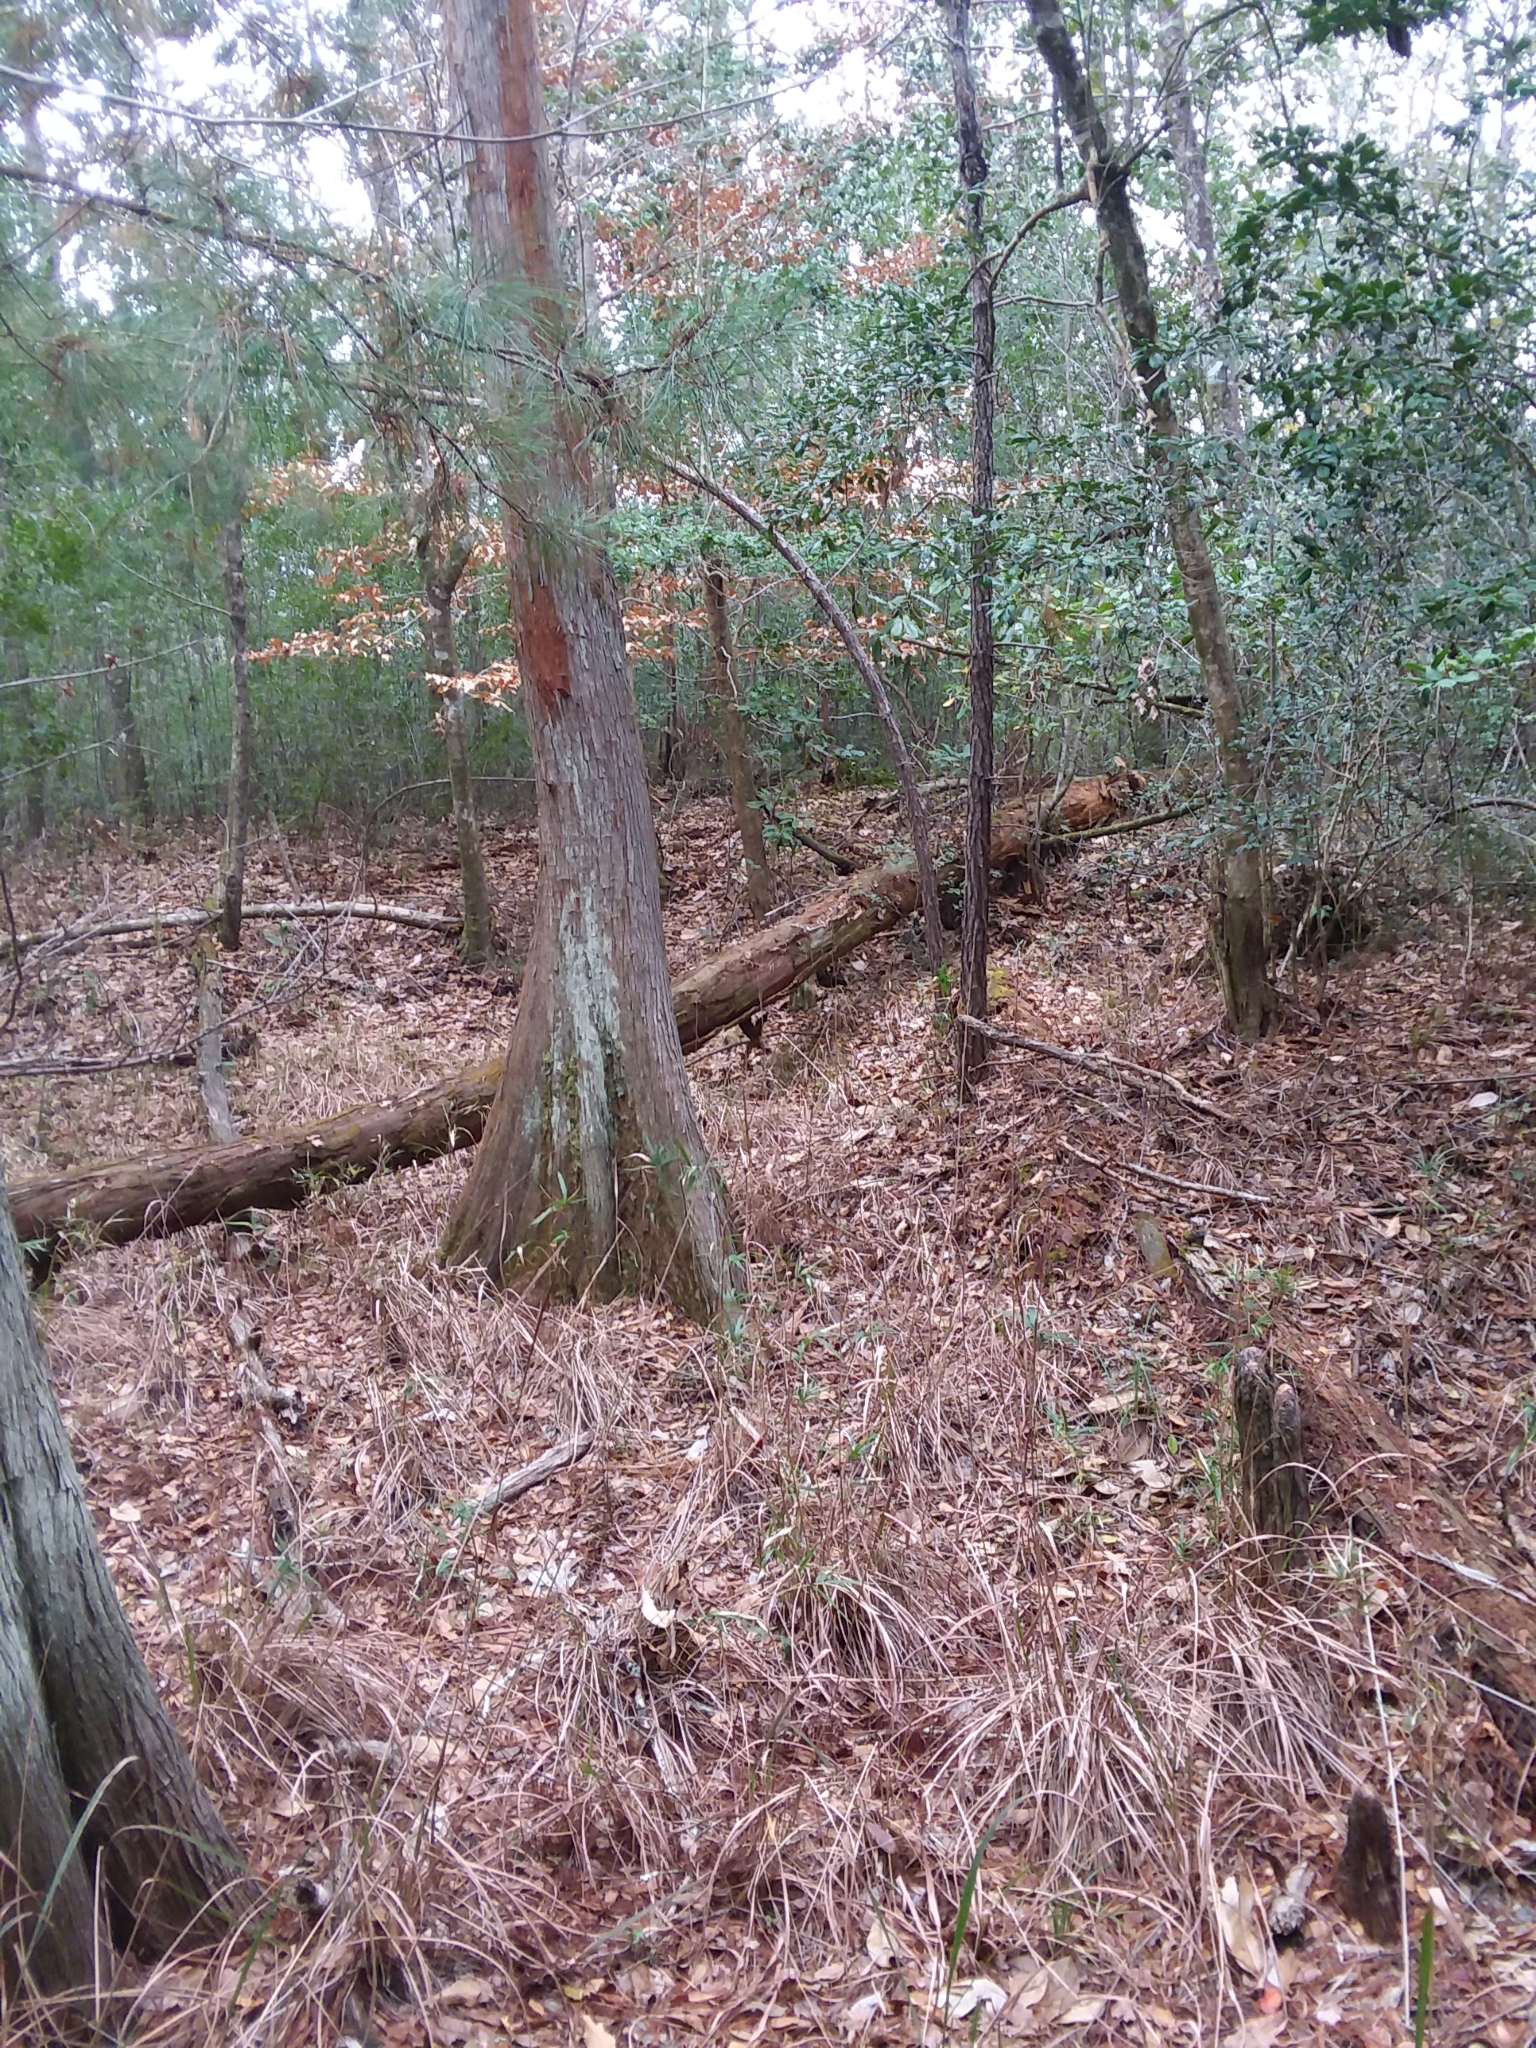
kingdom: Plantae
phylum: Tracheophyta
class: Liliopsida
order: Poales
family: Poaceae
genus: Erianthus
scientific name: Erianthus strictus
